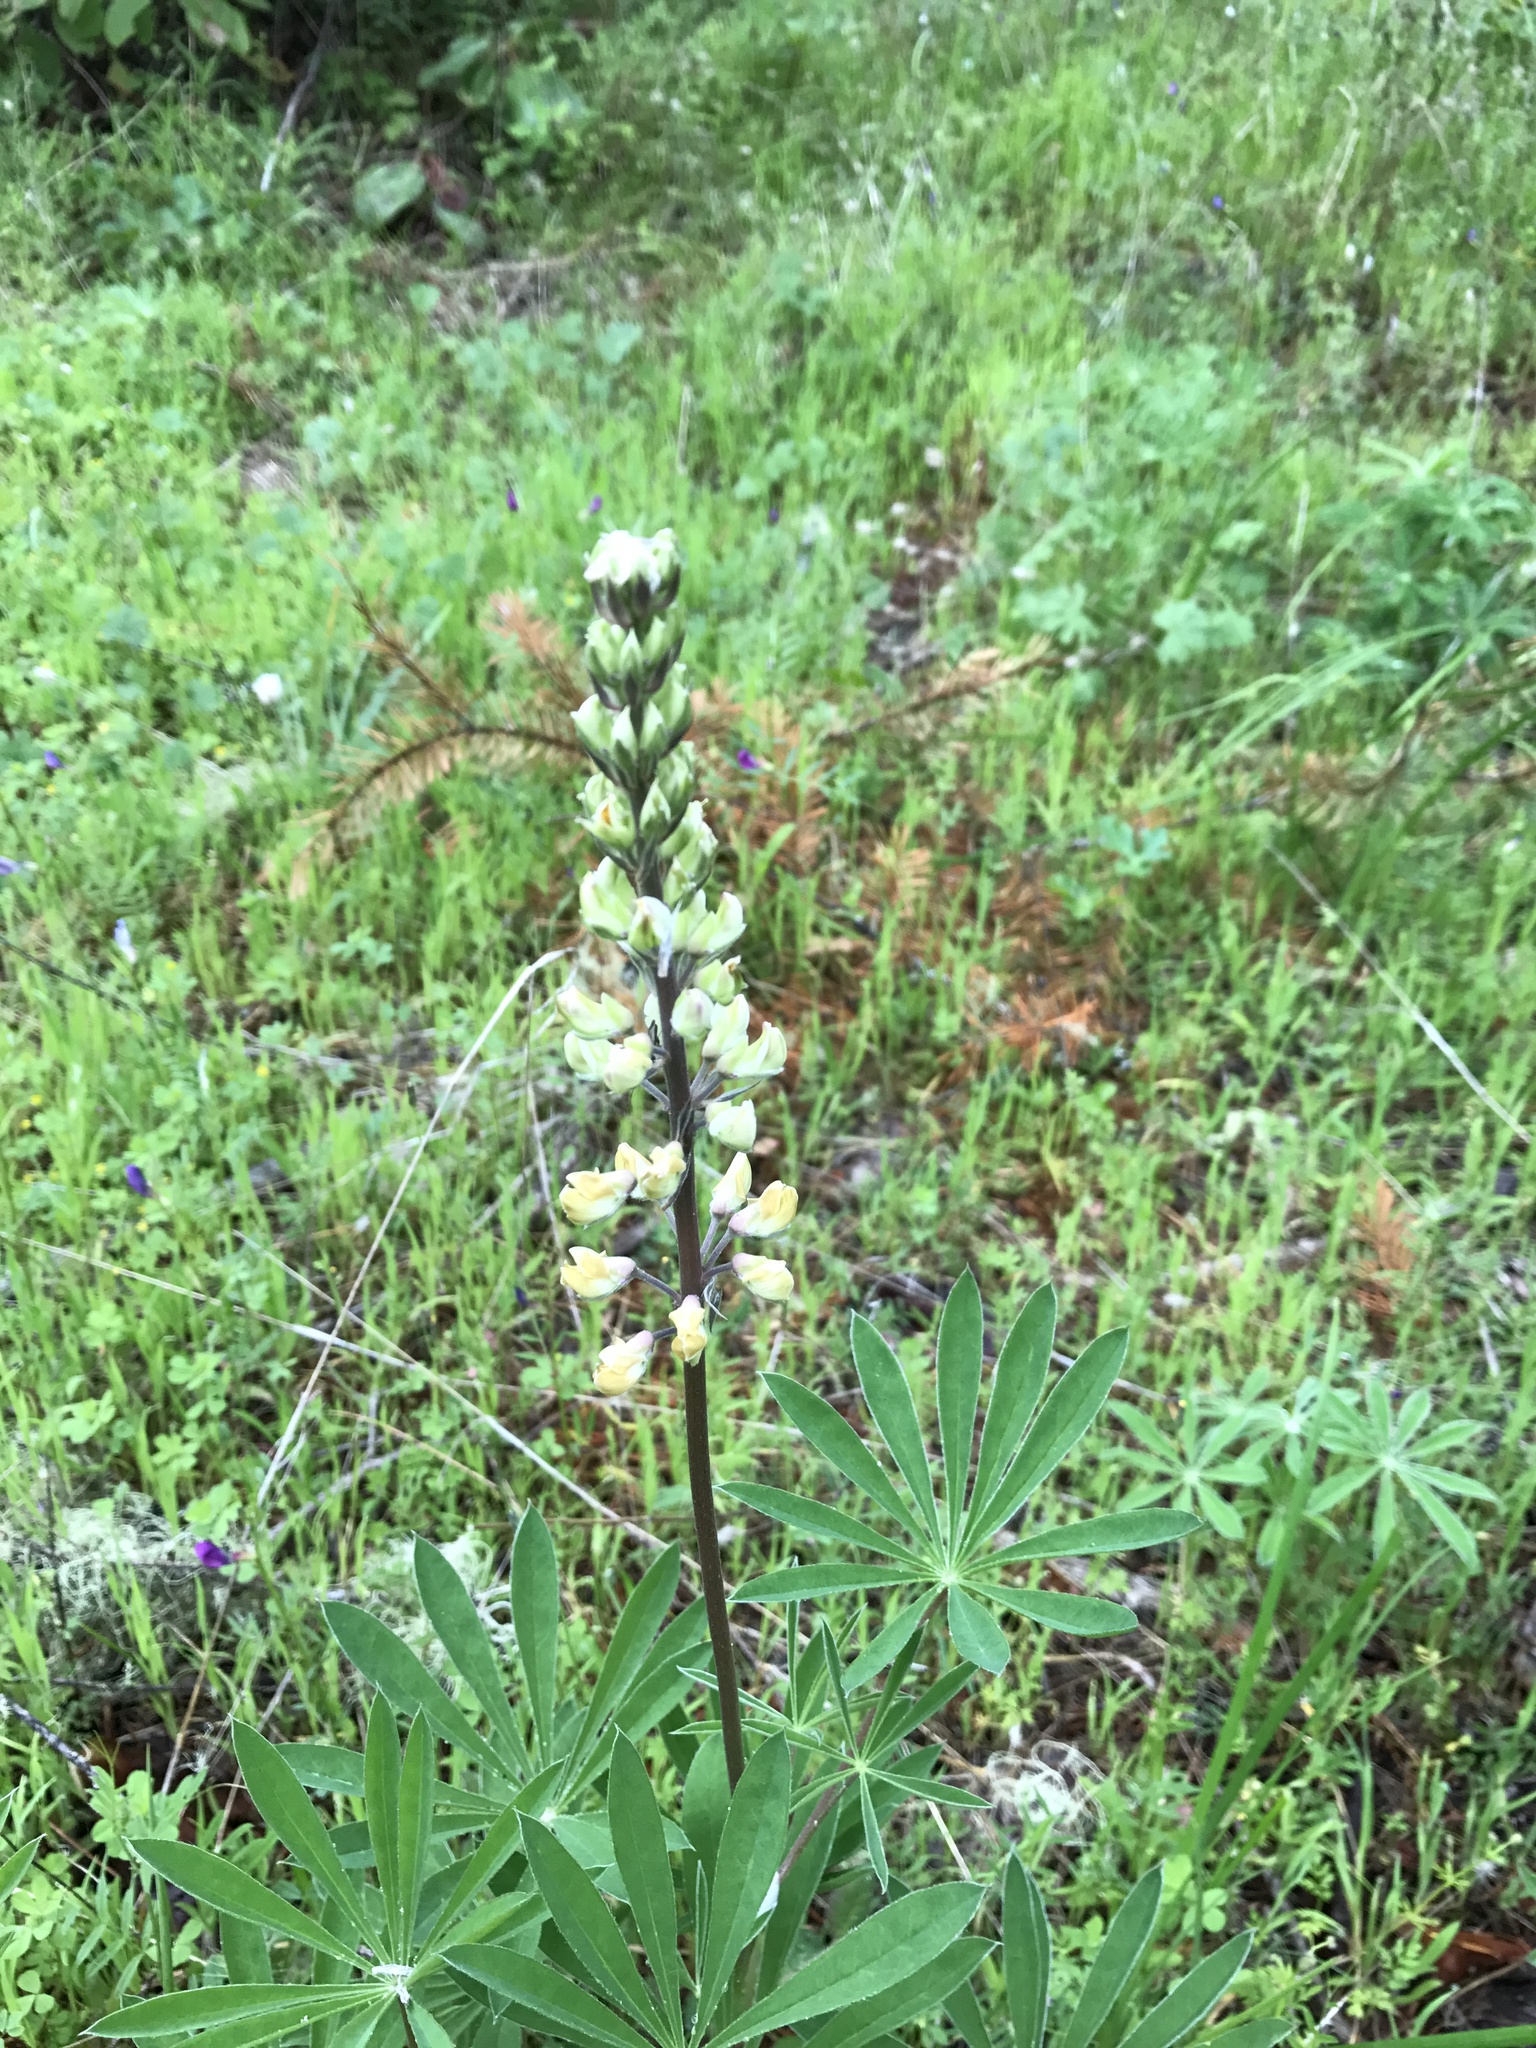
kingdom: Plantae
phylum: Tracheophyta
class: Magnoliopsida
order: Fabales
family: Fabaceae
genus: Lupinus
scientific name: Lupinus oreganus
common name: Kincaid's lupine
